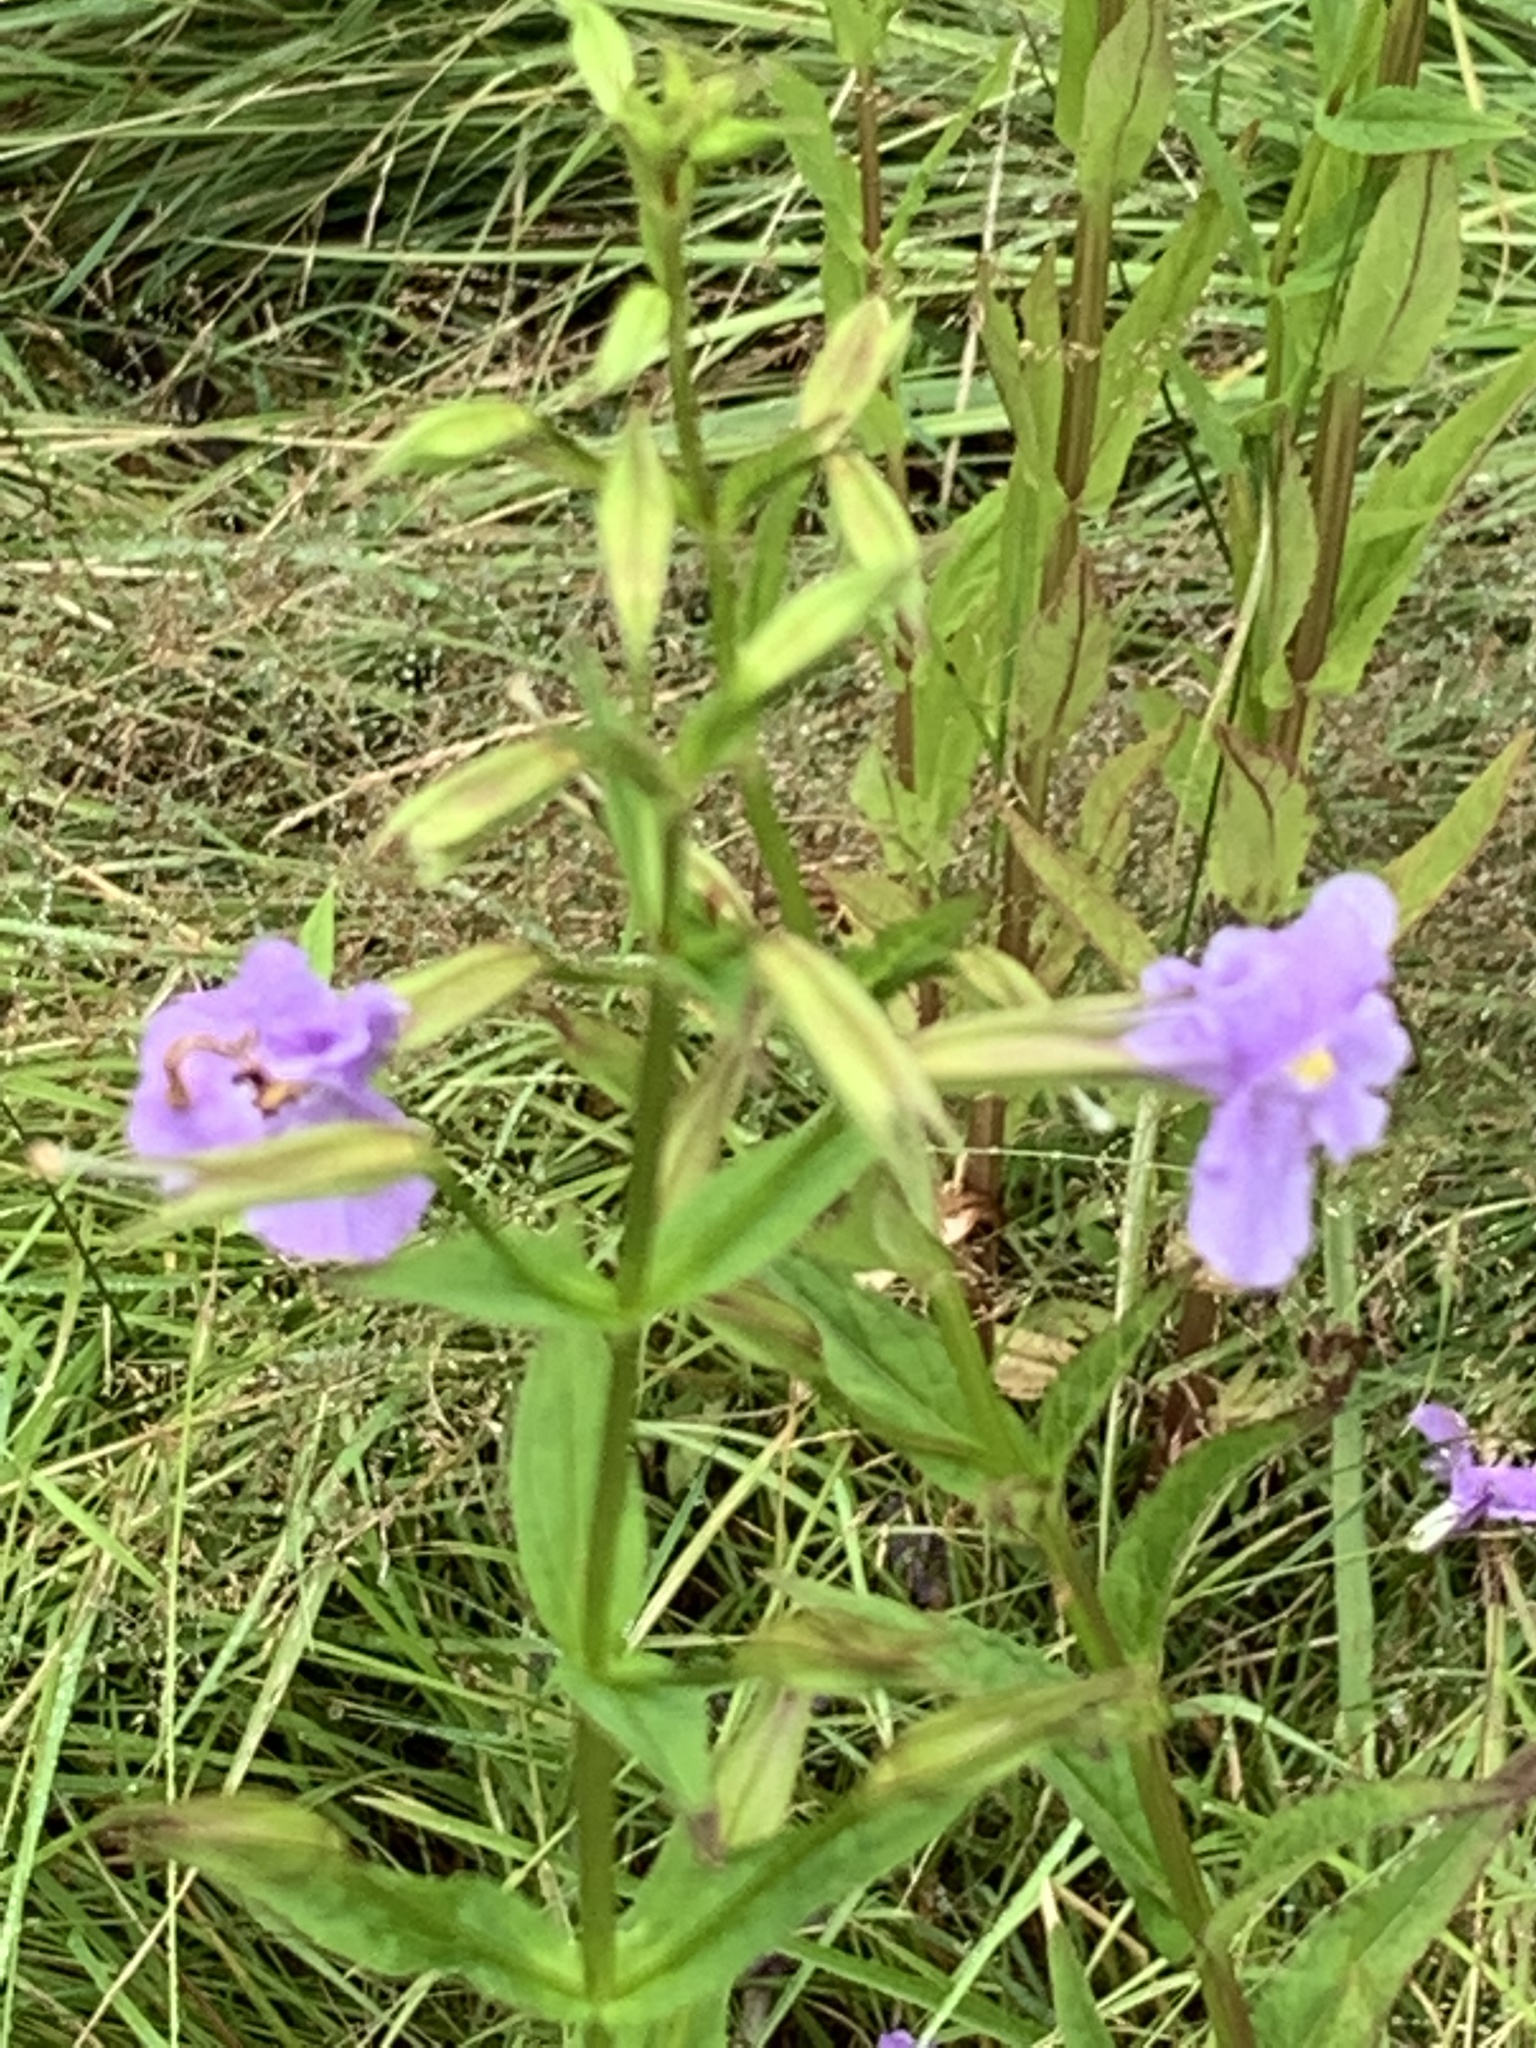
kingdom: Plantae
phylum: Tracheophyta
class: Magnoliopsida
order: Lamiales
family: Phrymaceae
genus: Mimulus
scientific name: Mimulus ringens
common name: Allegheny monkeyflower
